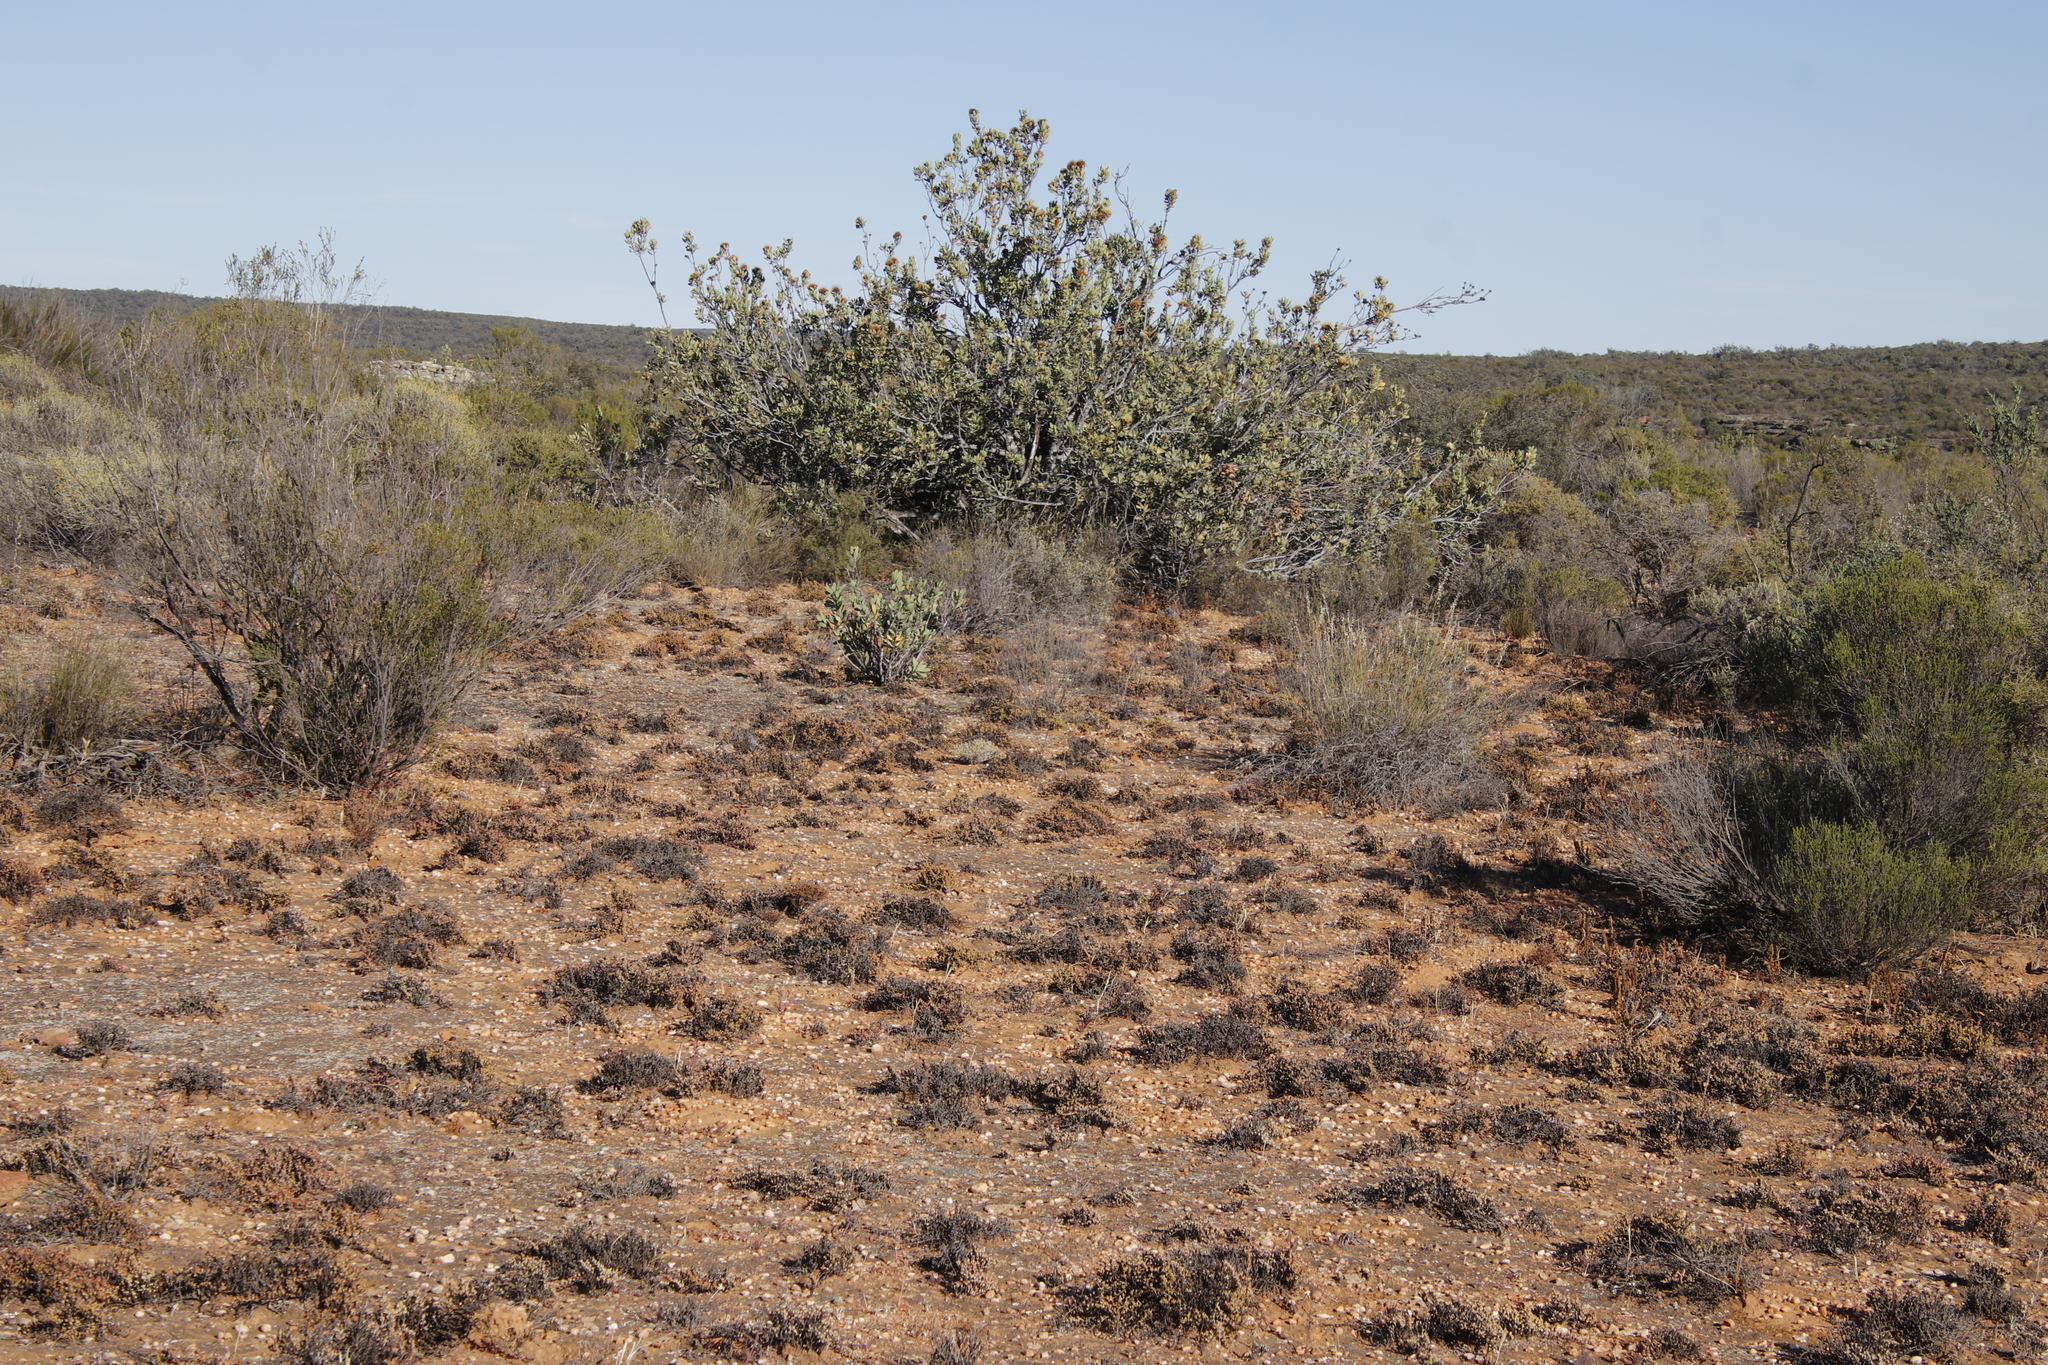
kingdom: Plantae
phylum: Tracheophyta
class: Magnoliopsida
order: Proteales
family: Proteaceae
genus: Protea
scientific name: Protea glabra
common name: Chestnut sugarbush
